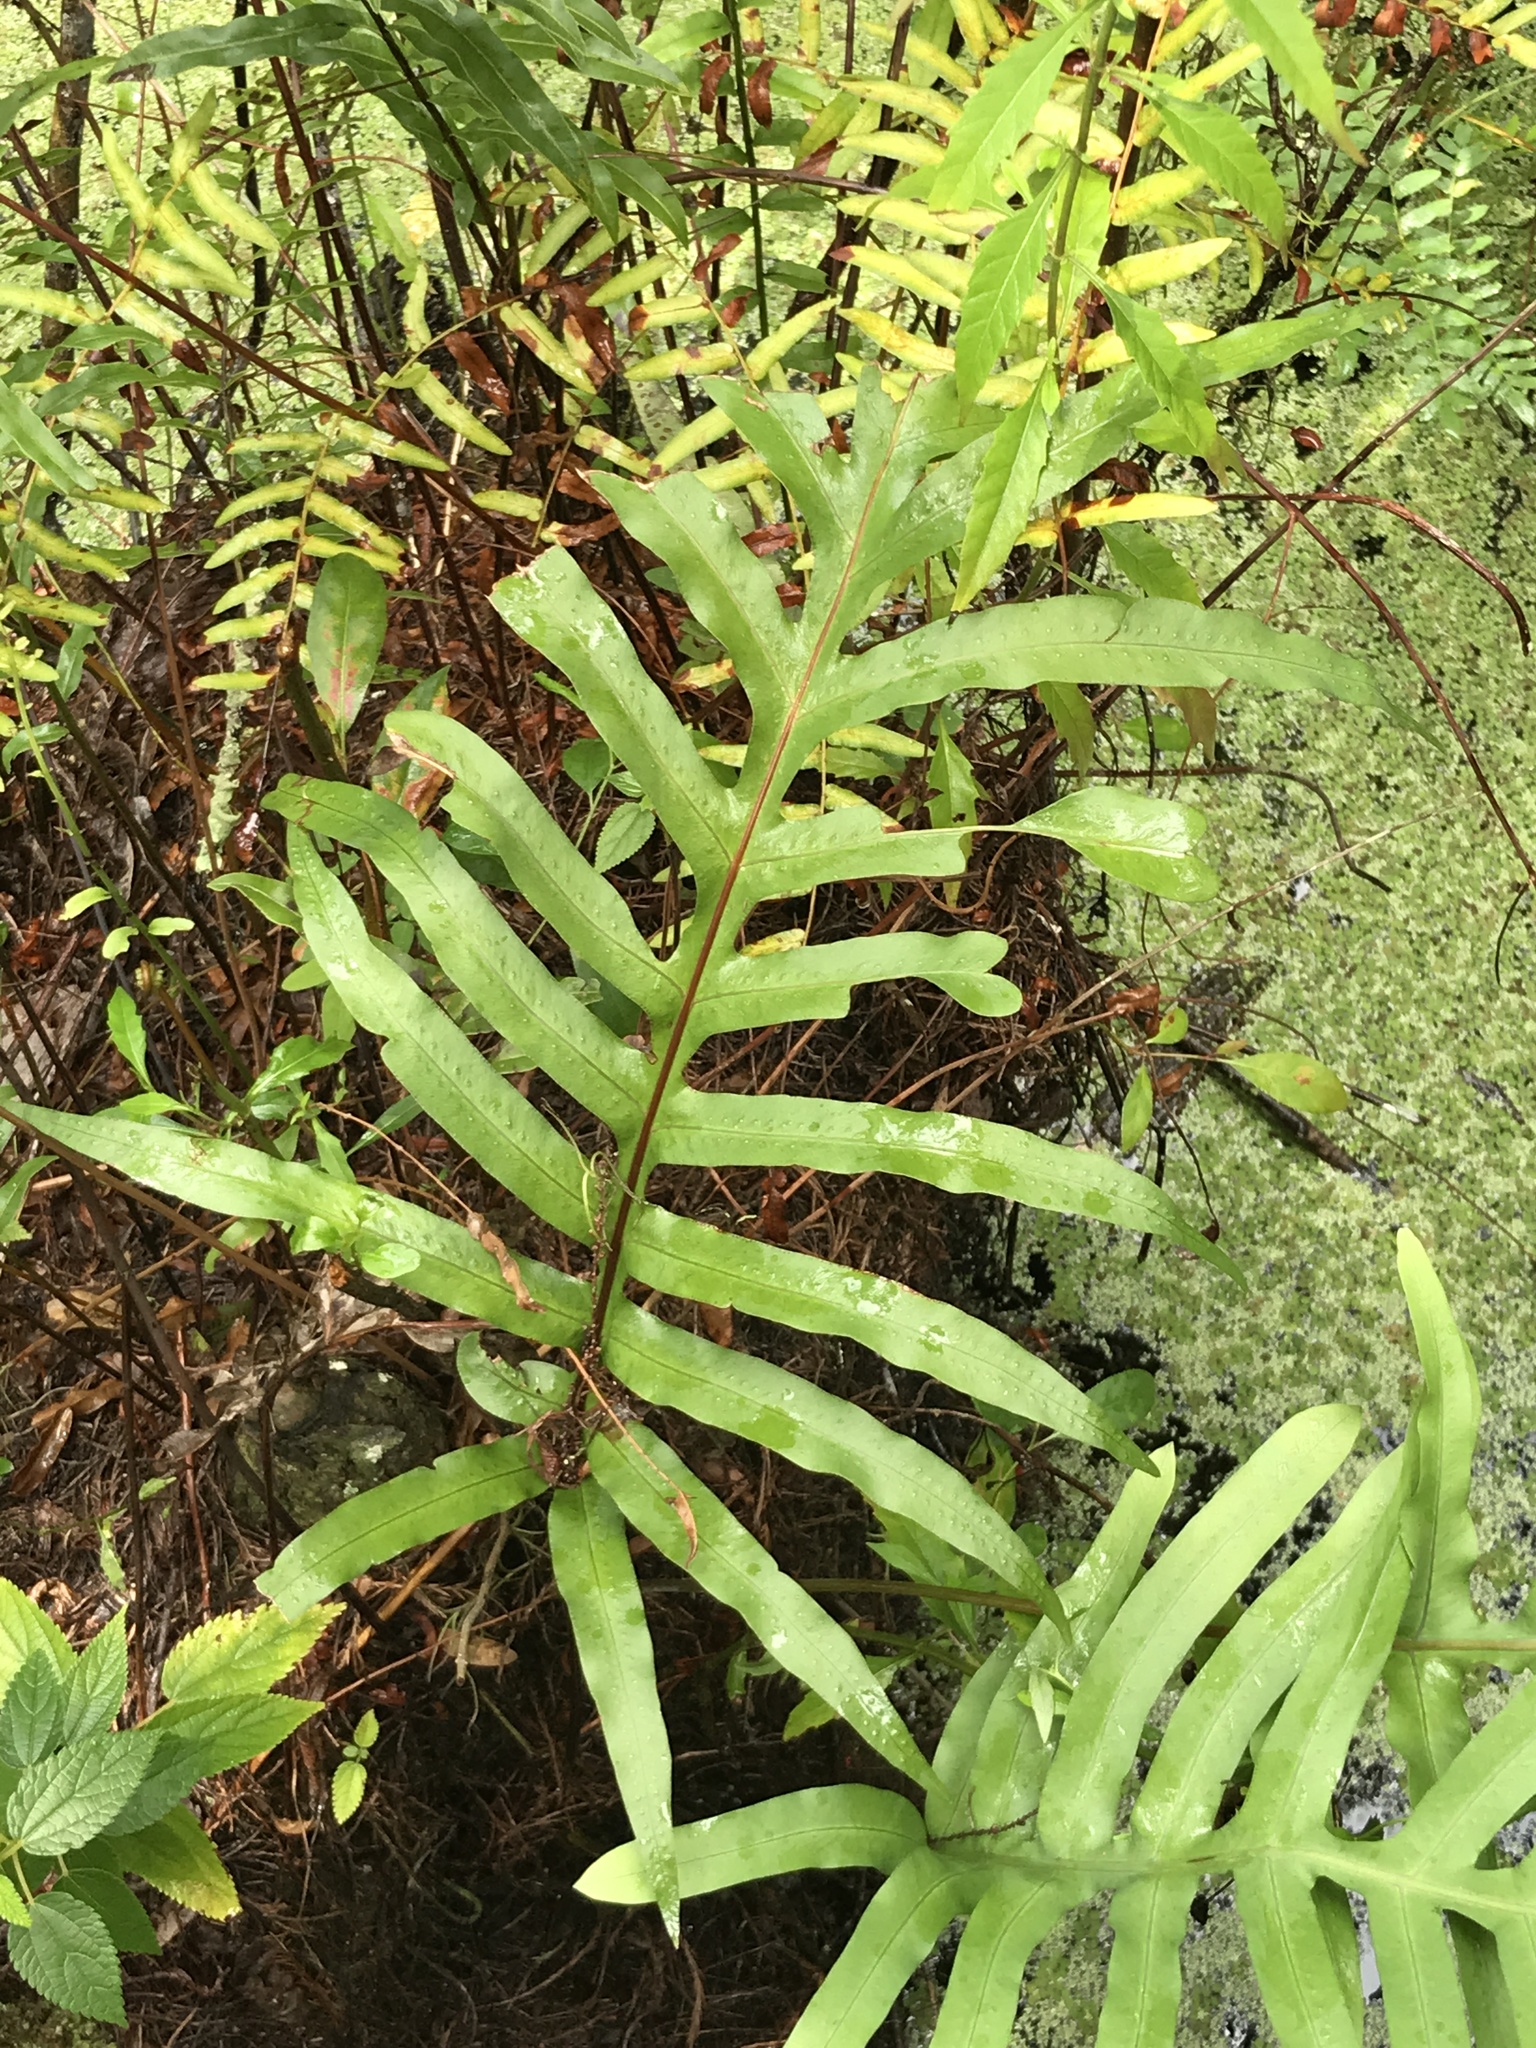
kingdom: Plantae
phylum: Tracheophyta
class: Polypodiopsida
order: Polypodiales
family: Polypodiaceae
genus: Phlebodium
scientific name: Phlebodium aureum
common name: Gold-foot fern
